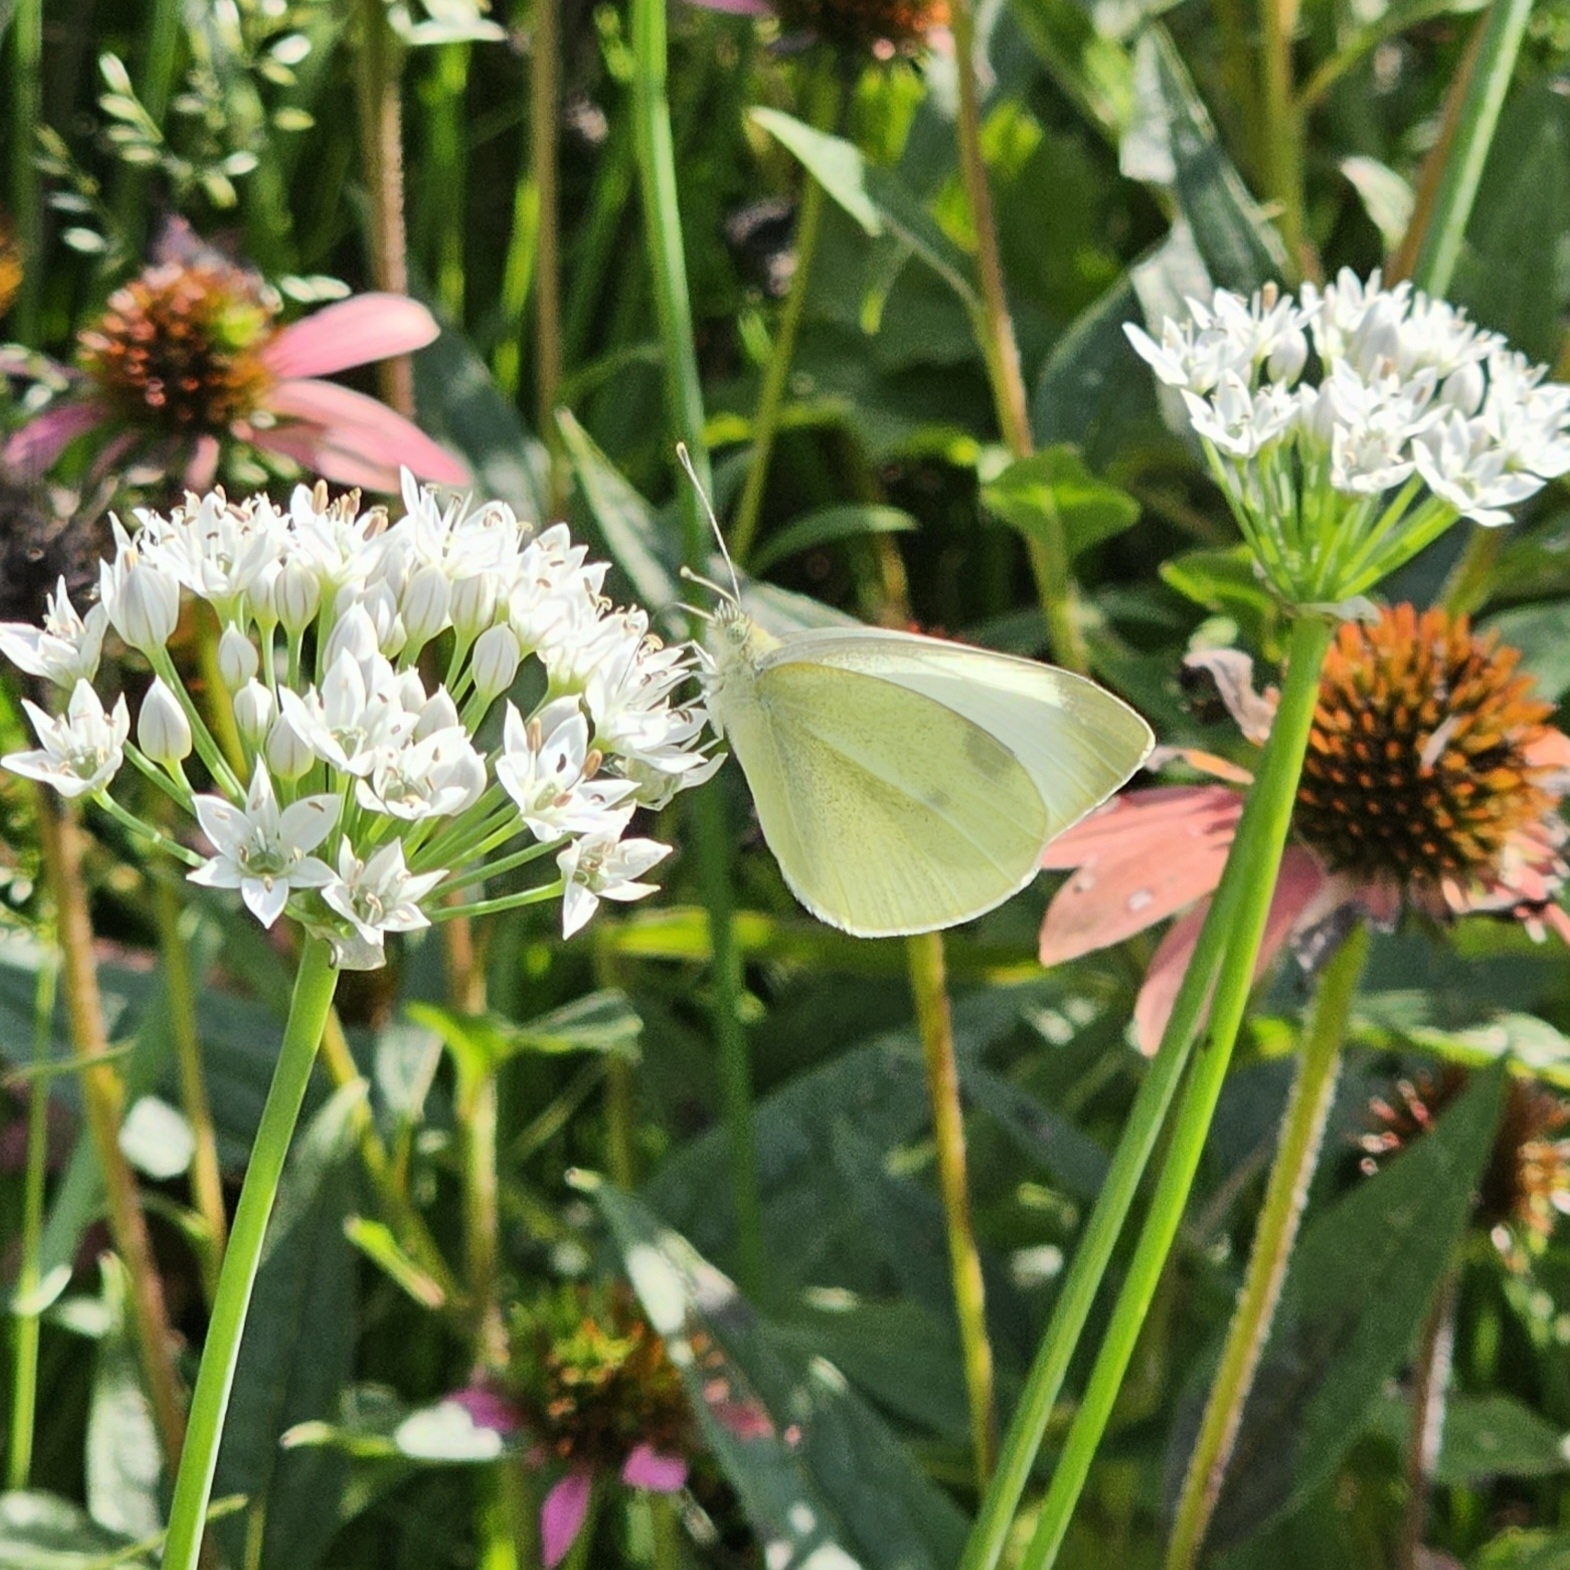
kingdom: Animalia
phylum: Arthropoda
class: Insecta
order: Lepidoptera
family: Pieridae
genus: Pieris
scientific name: Pieris rapae
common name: Small white
